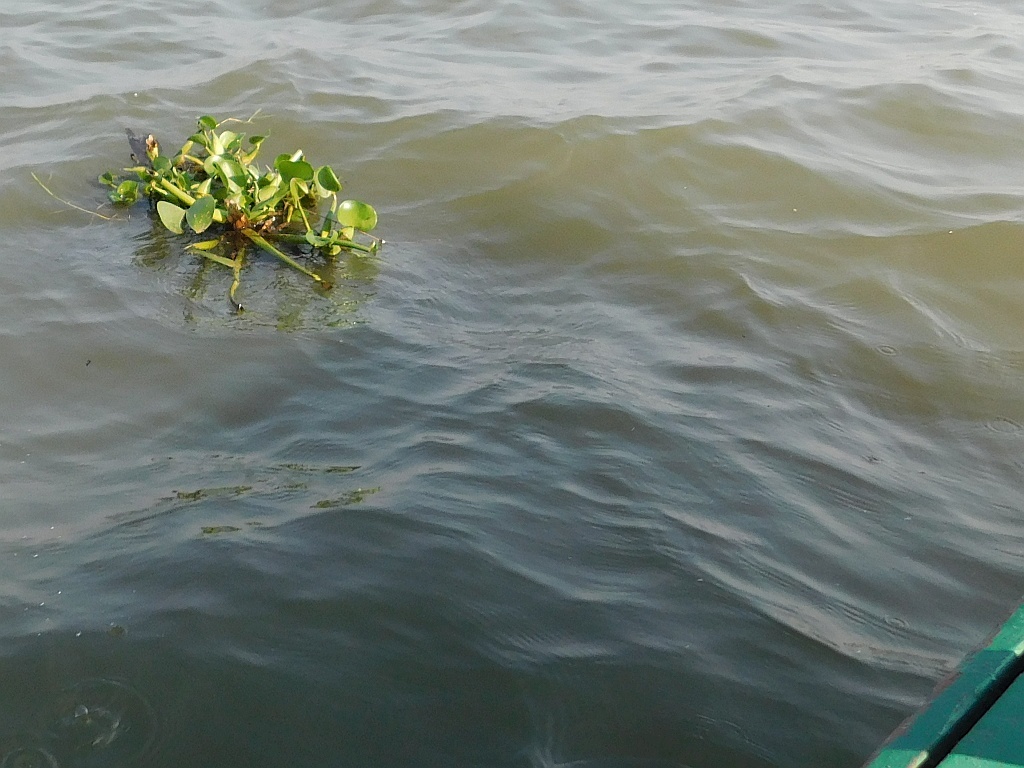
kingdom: Plantae
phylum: Tracheophyta
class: Liliopsida
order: Commelinales
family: Pontederiaceae
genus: Pontederia
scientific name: Pontederia crassipes
